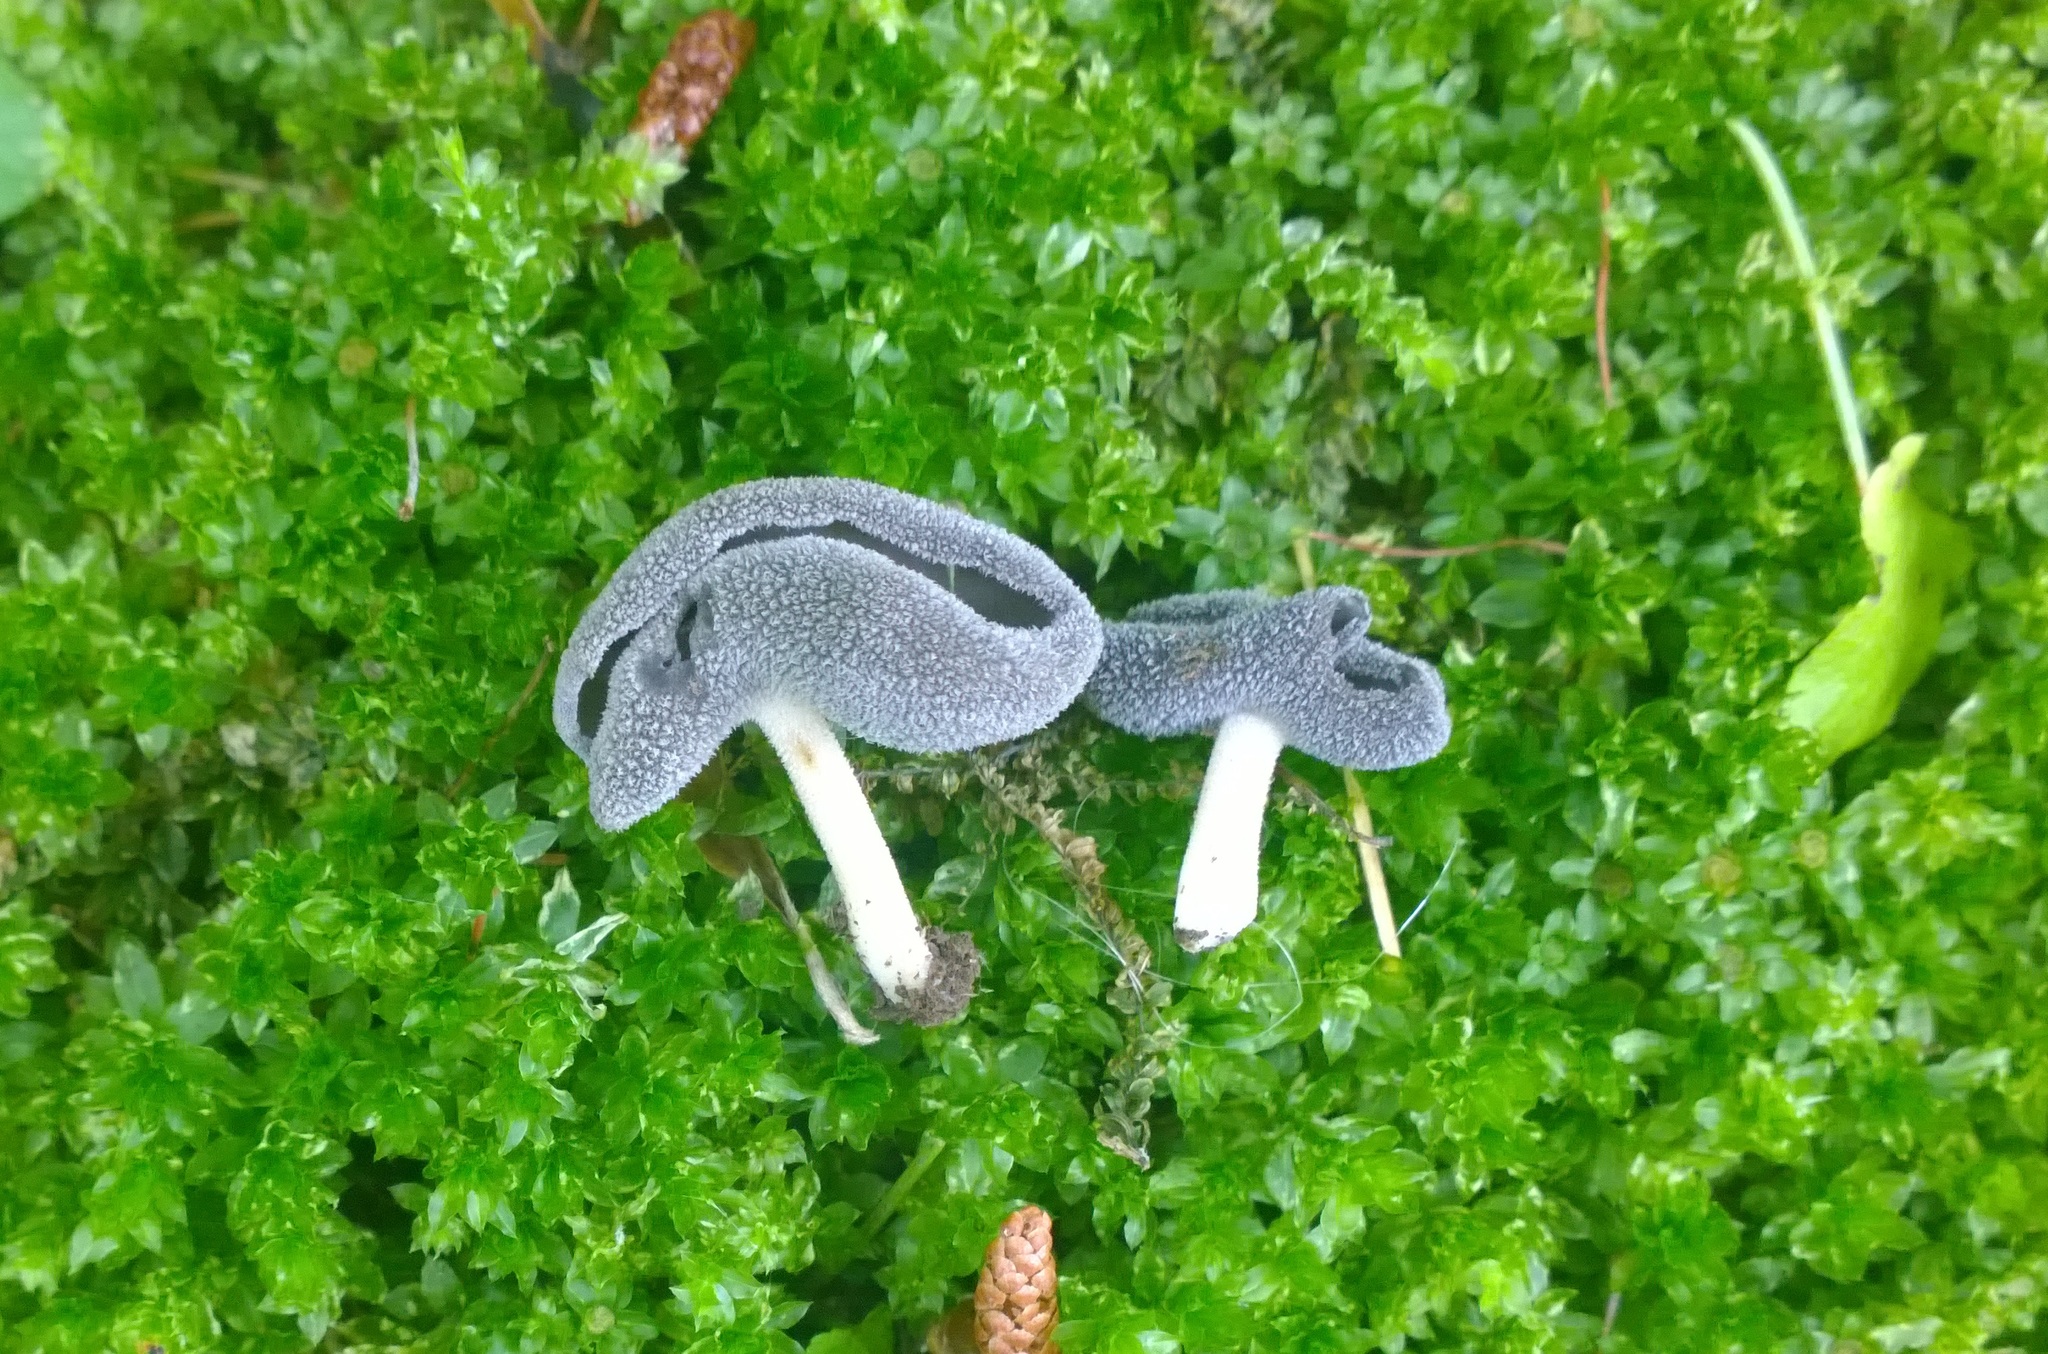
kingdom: Fungi
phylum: Ascomycota
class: Pezizomycetes
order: Pezizales
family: Helvellaceae
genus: Helvella
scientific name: Helvella ephippium
